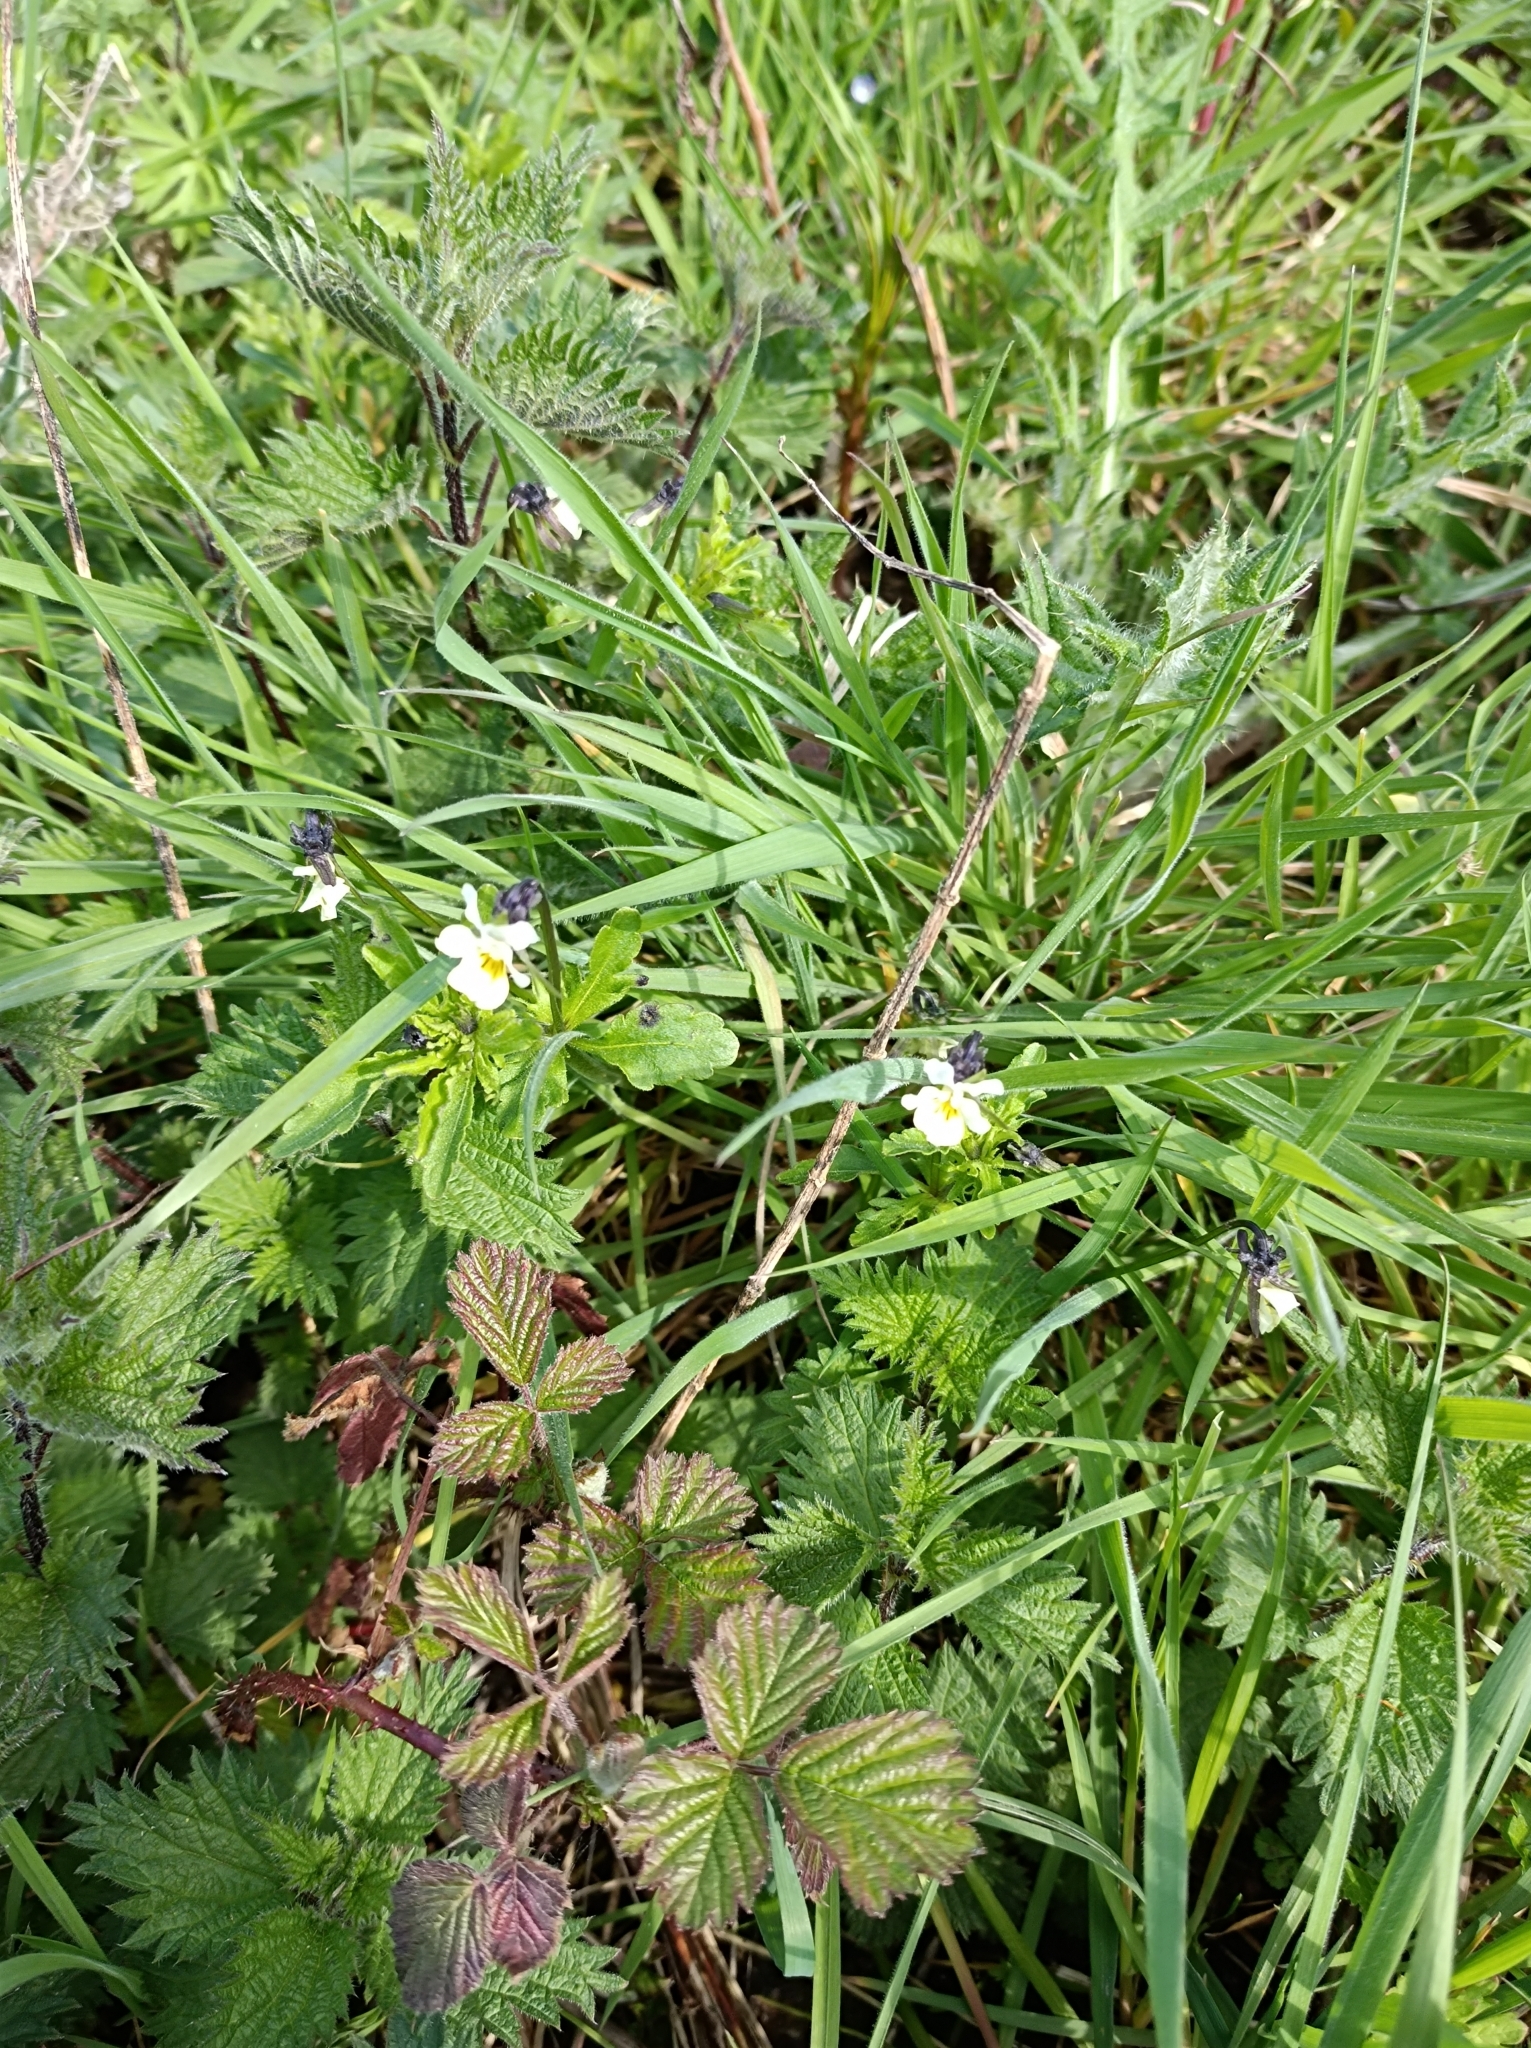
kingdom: Plantae
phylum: Tracheophyta
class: Magnoliopsida
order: Malpighiales
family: Violaceae
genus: Viola
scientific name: Viola arvensis
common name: Field pansy
